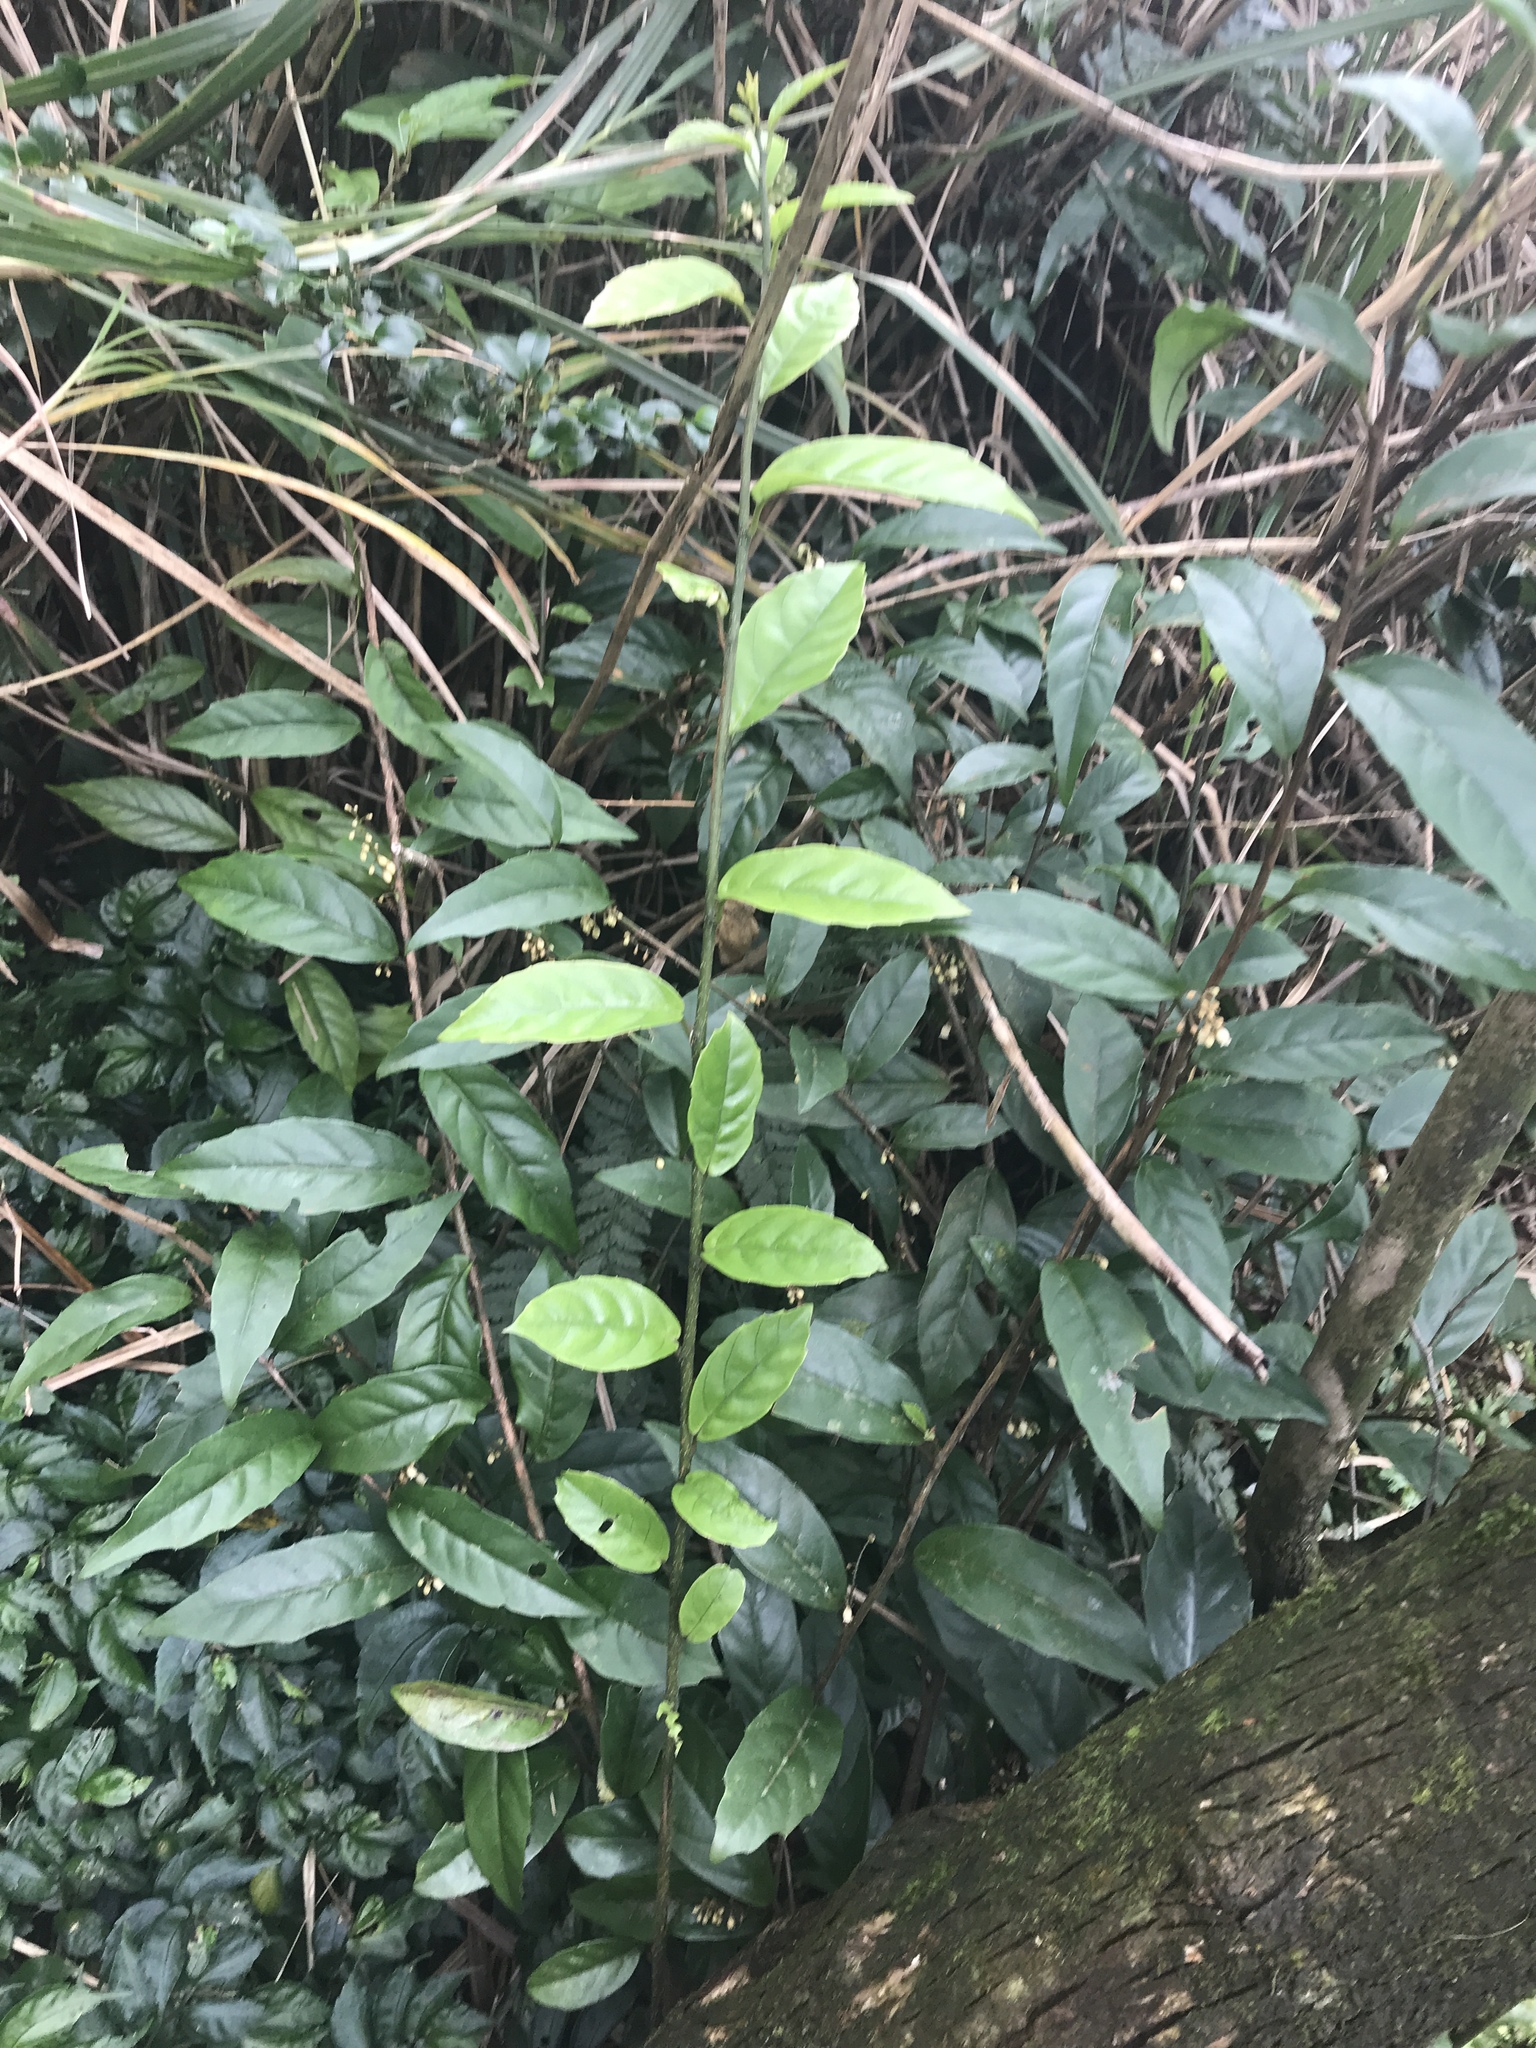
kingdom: Plantae
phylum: Tracheophyta
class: Magnoliopsida
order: Ericales
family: Primulaceae
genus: Maesa
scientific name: Maesa japonica
